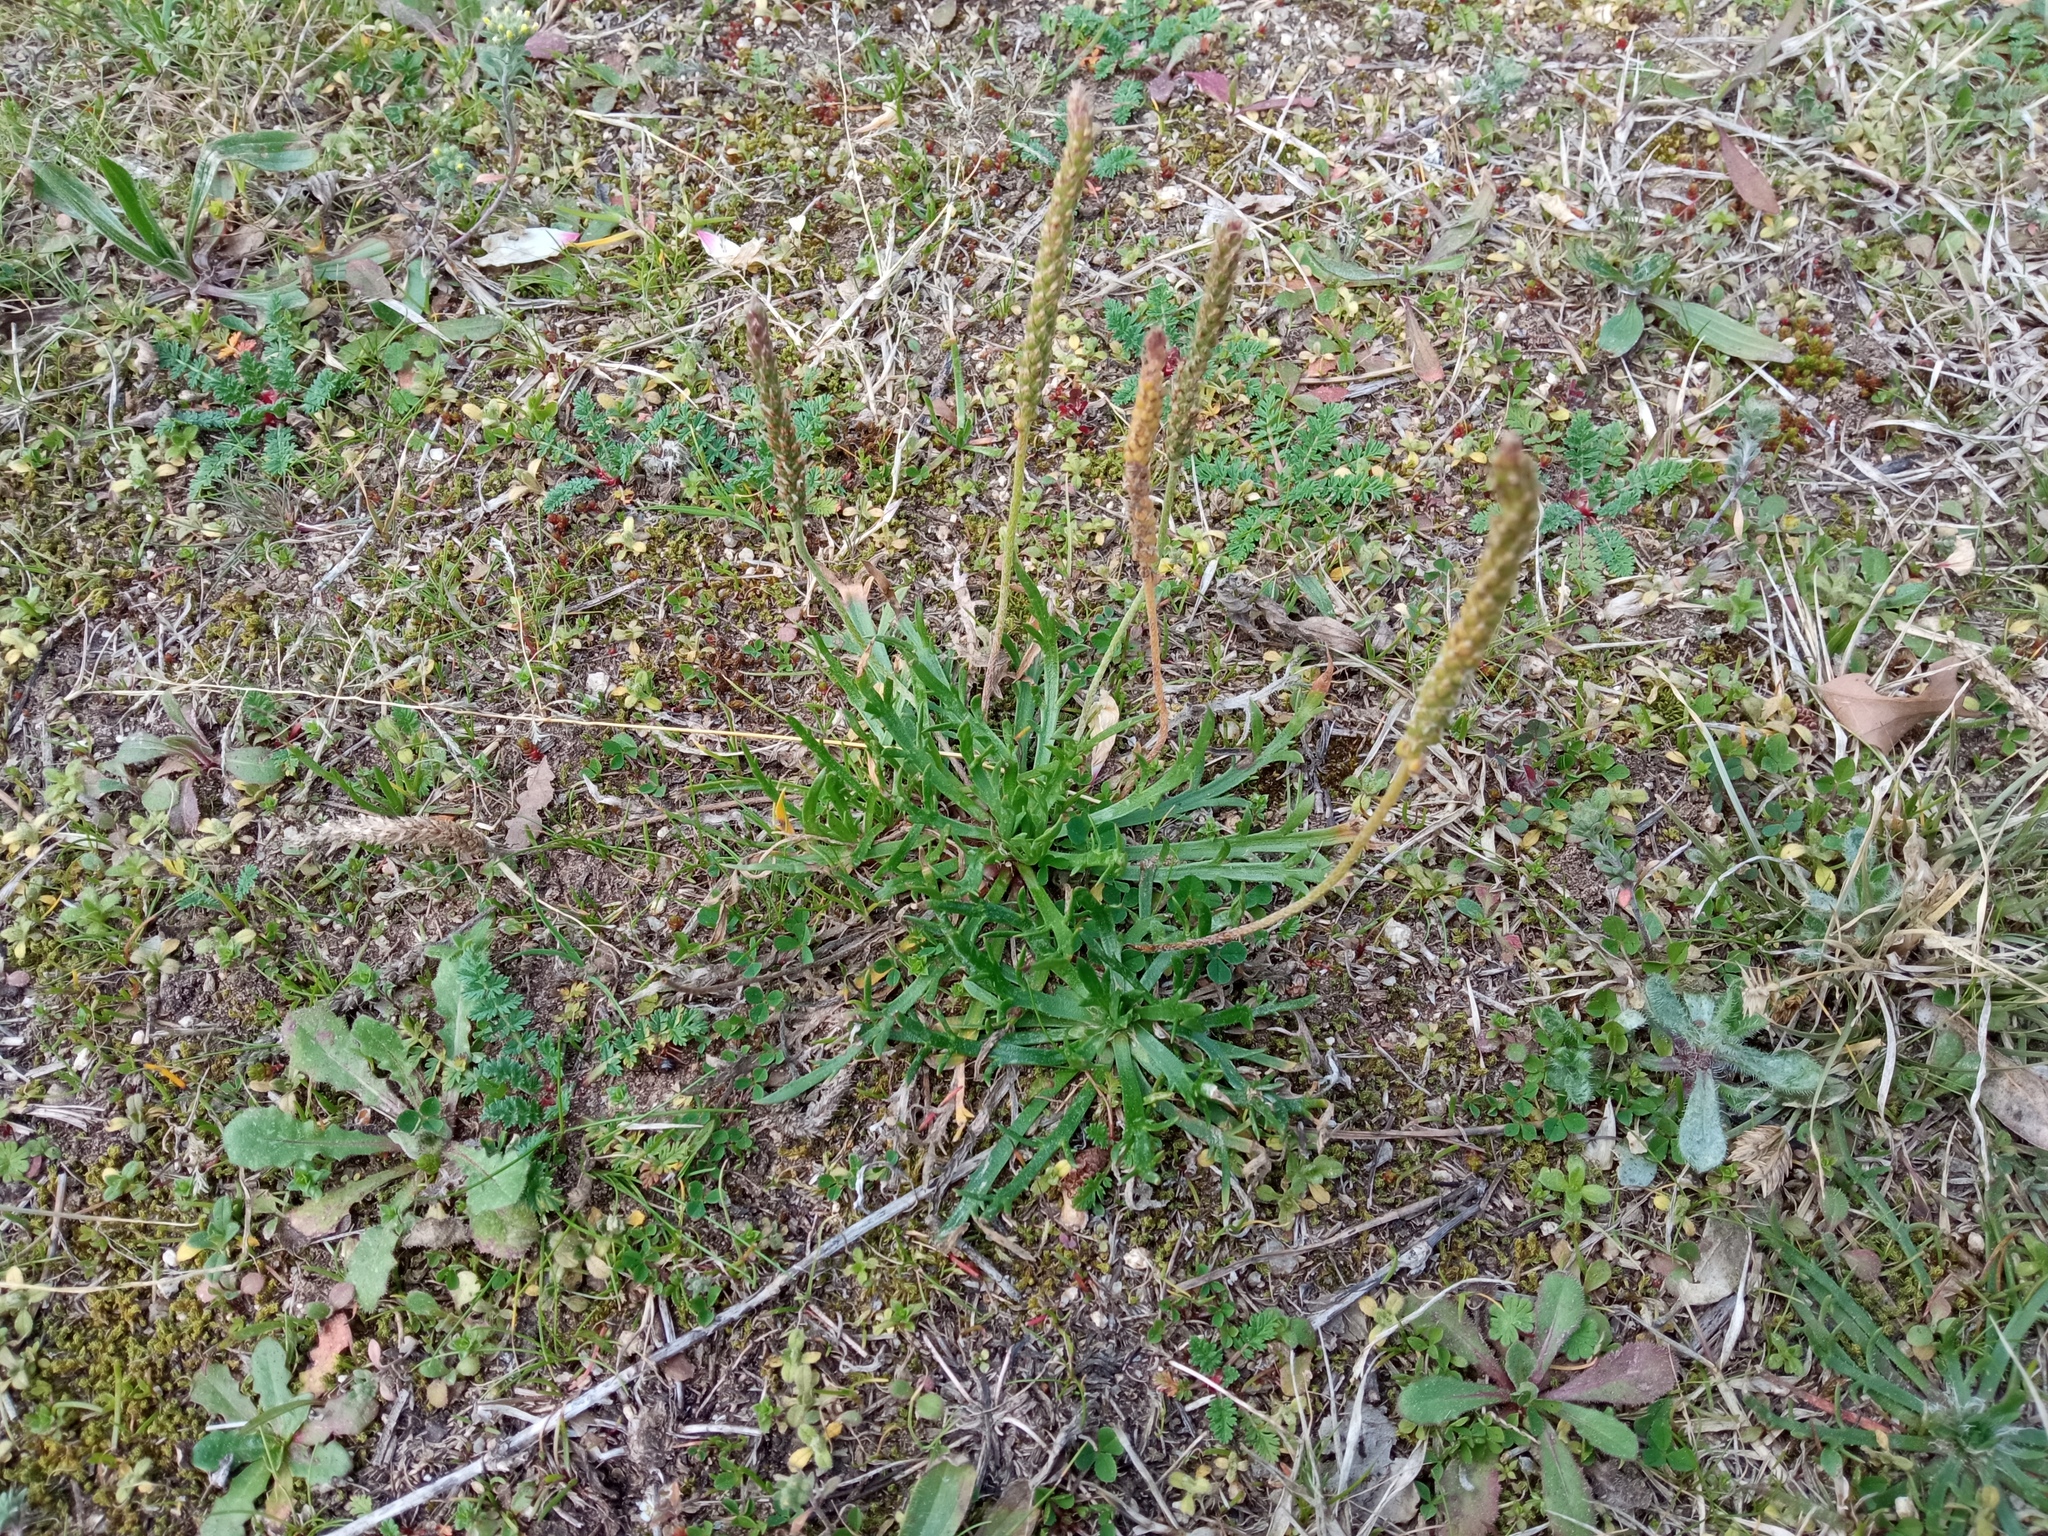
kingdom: Plantae
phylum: Tracheophyta
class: Magnoliopsida
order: Lamiales
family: Plantaginaceae
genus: Plantago
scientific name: Plantago coronopus
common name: Buck's-horn plantain
